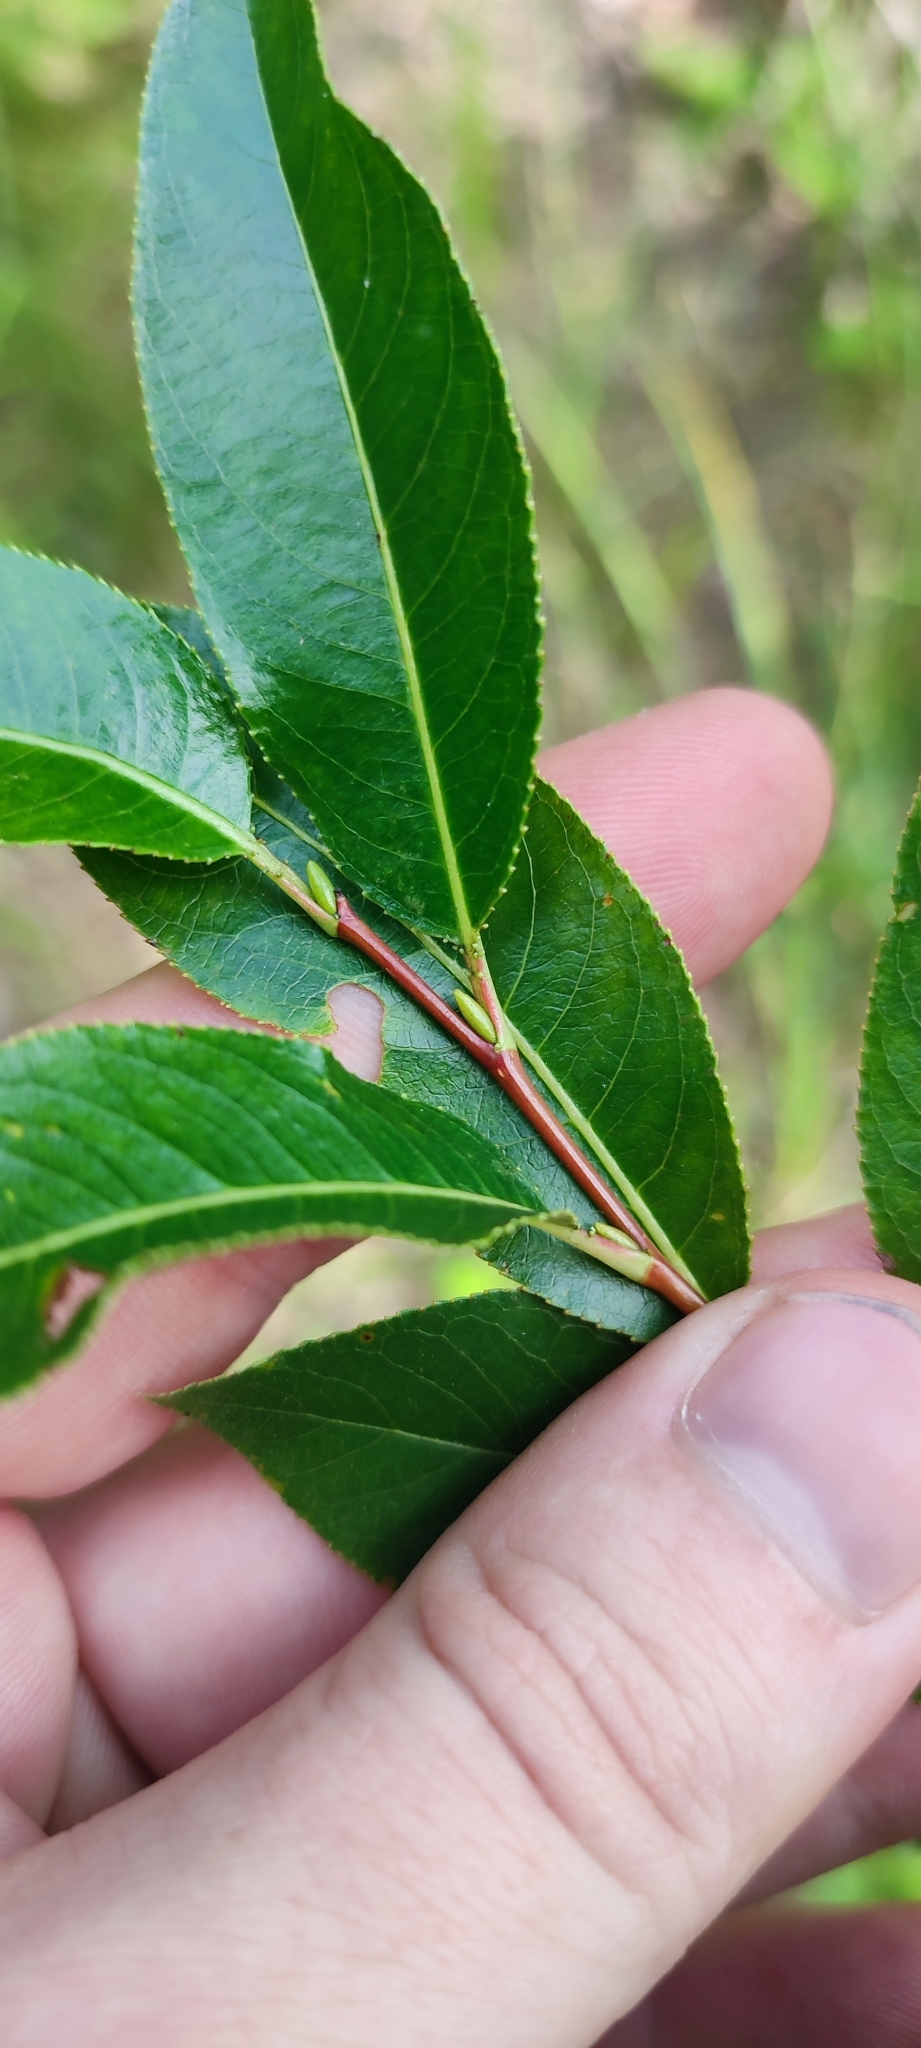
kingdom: Plantae
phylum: Tracheophyta
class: Magnoliopsida
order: Malpighiales
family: Salicaceae
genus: Salix
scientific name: Salix pentandra
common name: Bay willow
